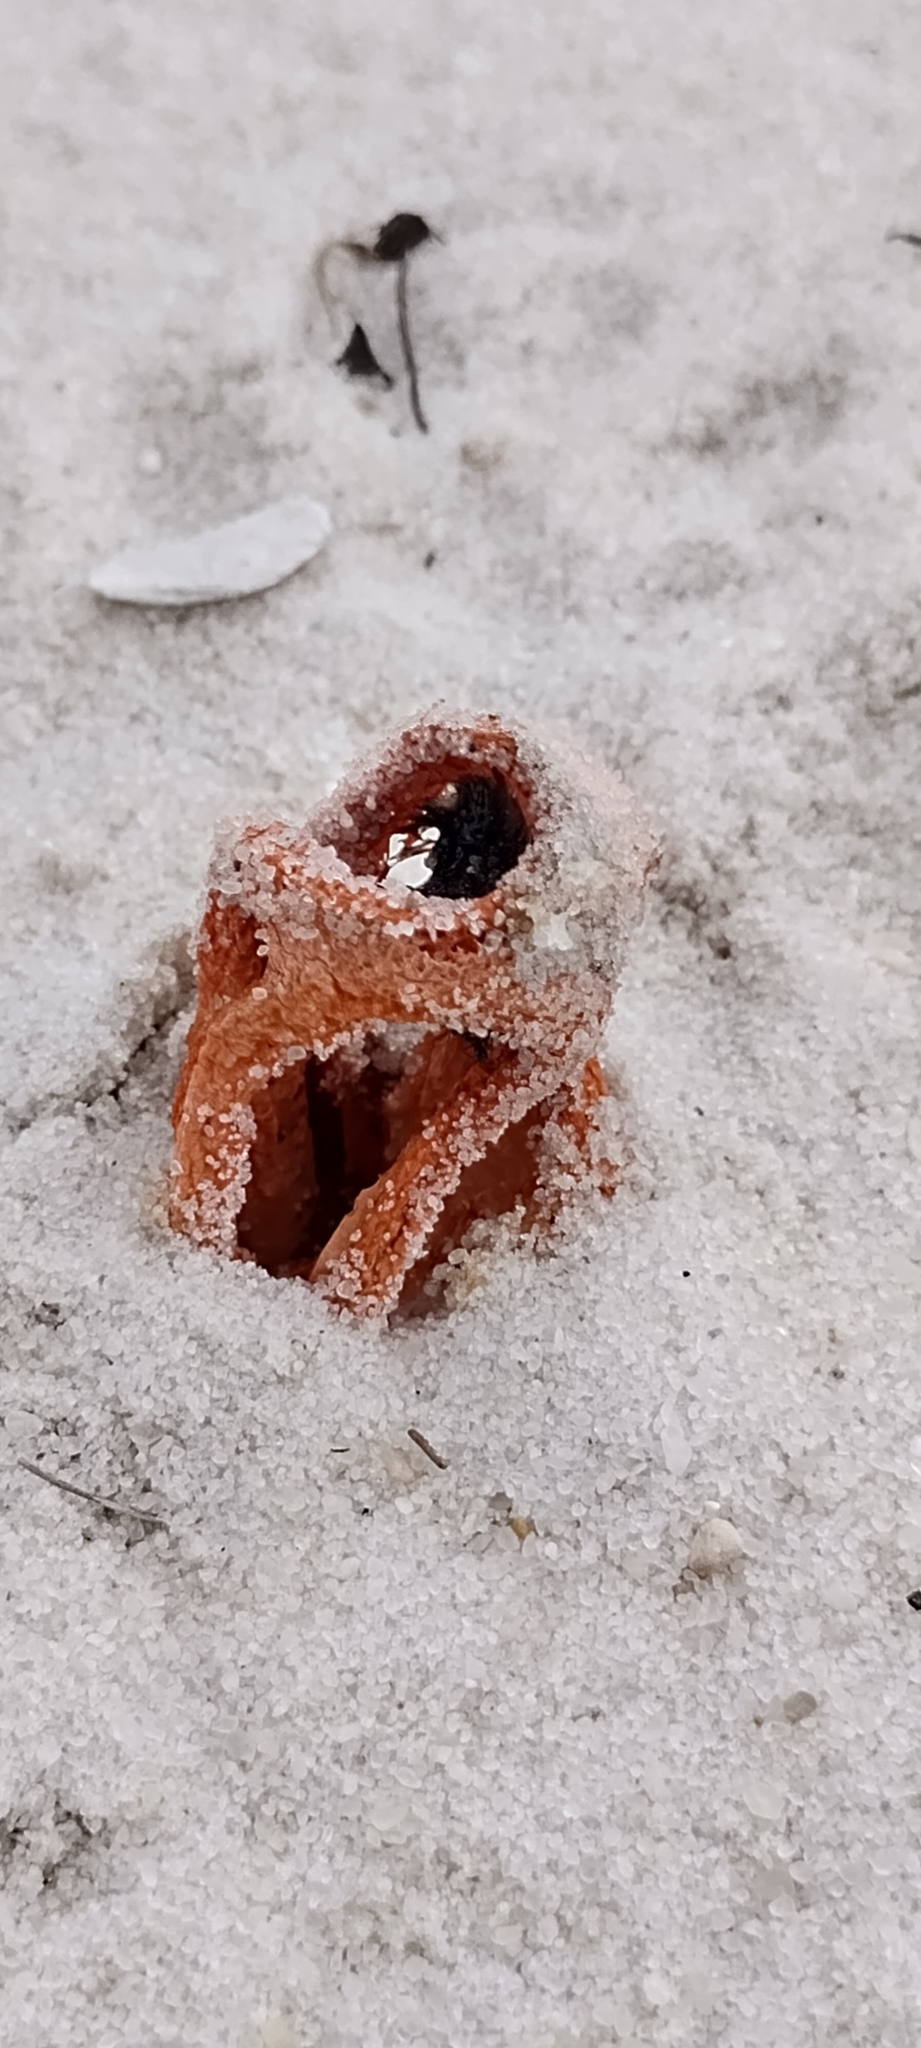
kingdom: Fungi
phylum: Basidiomycota
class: Agaricomycetes
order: Phallales
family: Phallaceae
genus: Clathrus
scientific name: Clathrus columnatus
